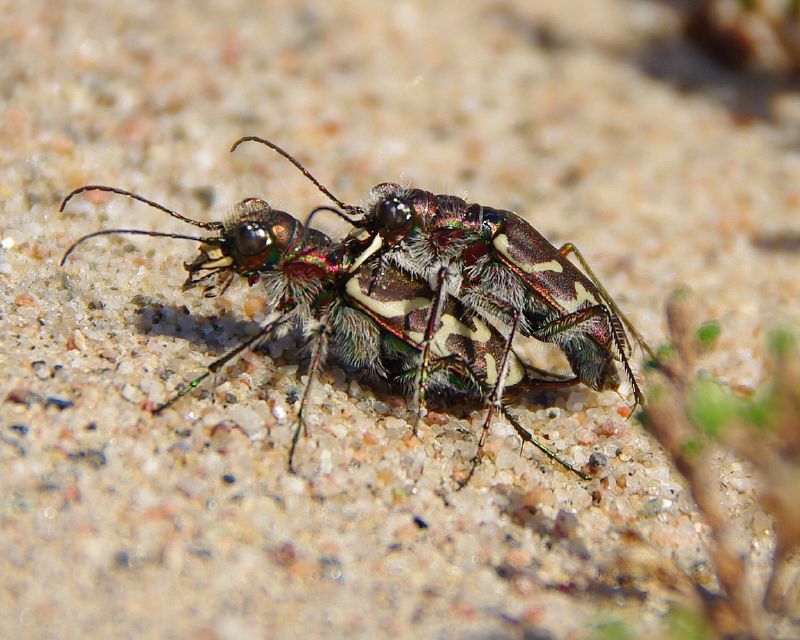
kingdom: Animalia
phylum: Arthropoda
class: Insecta
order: Coleoptera
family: Carabidae
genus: Cicindela
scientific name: Cicindela tranquebarica
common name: Oblique-lined tiger beetle
